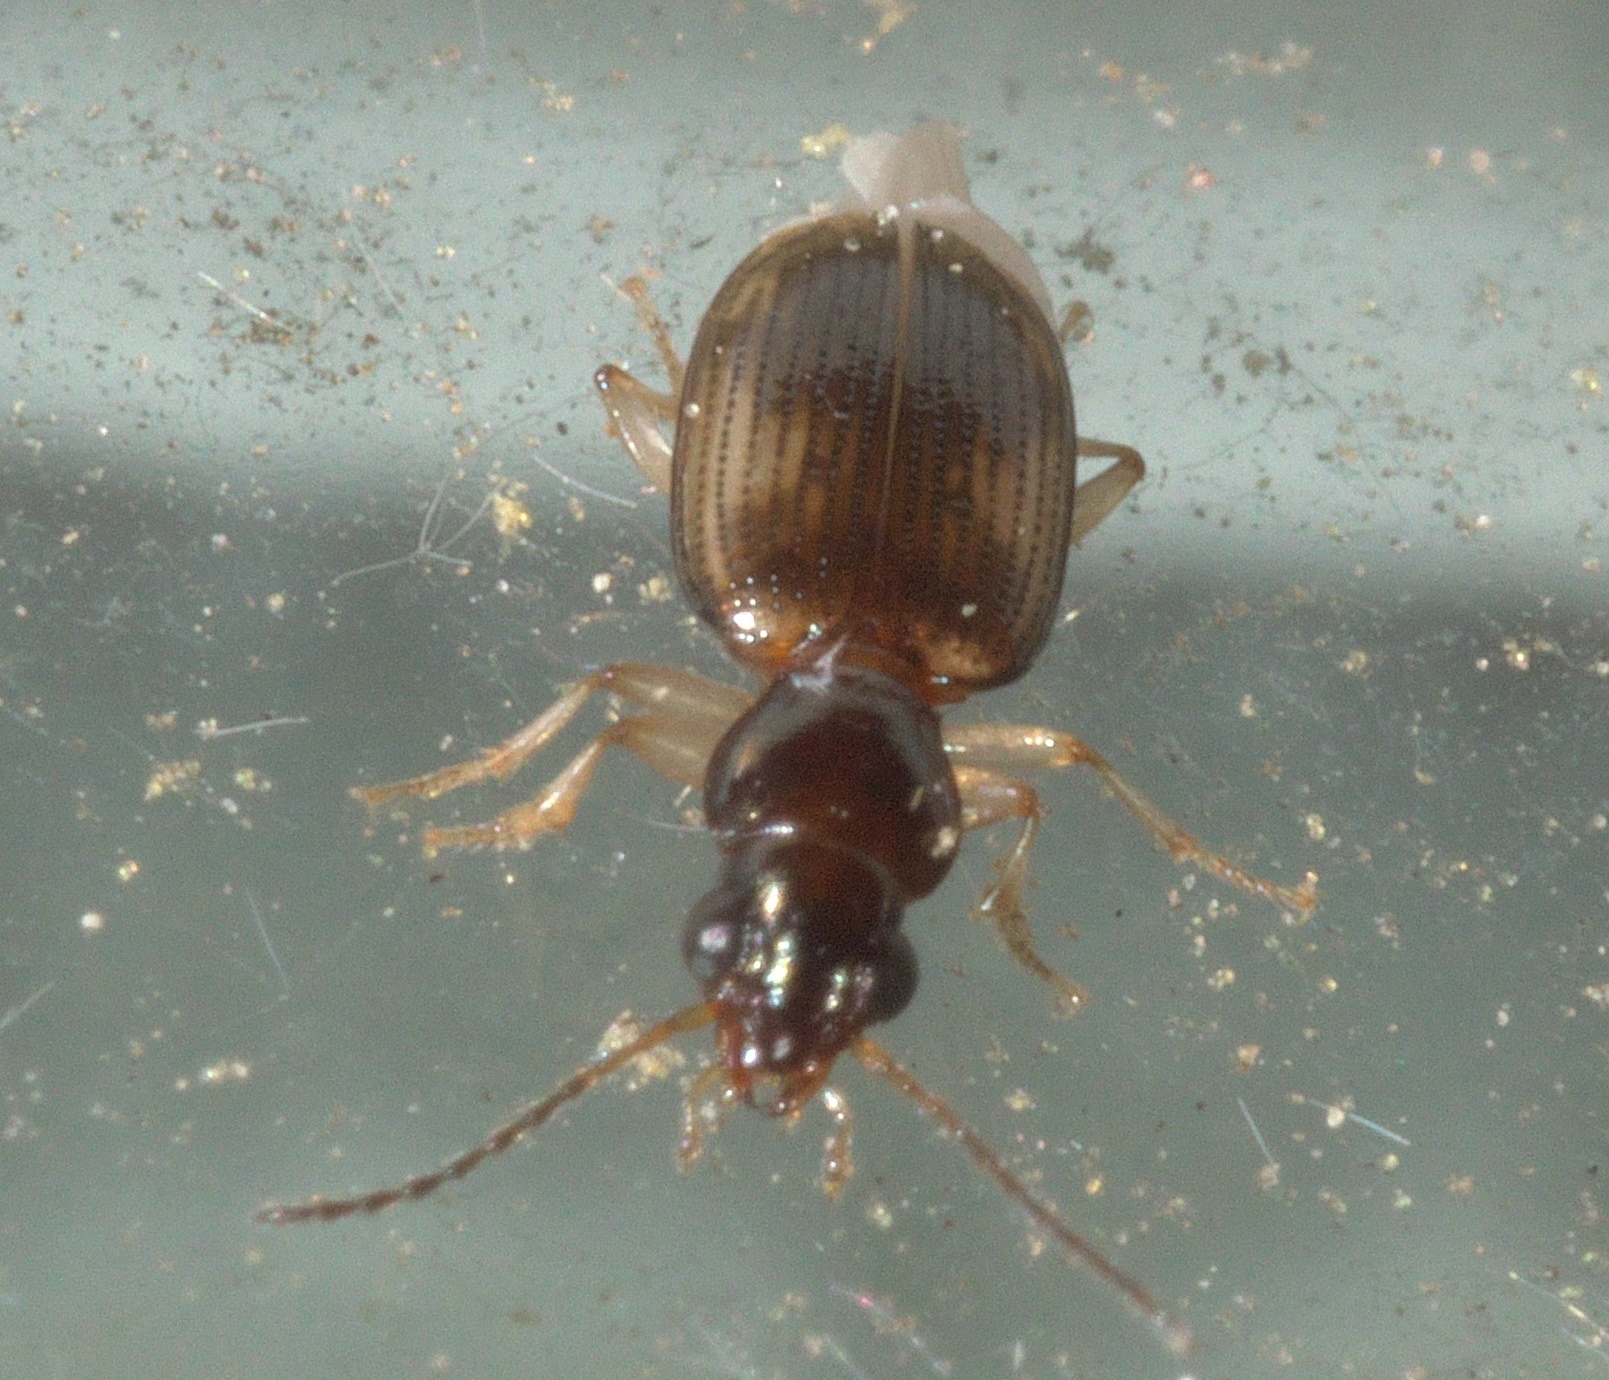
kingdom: Animalia
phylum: Arthropoda
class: Insecta
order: Coleoptera
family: Carabidae
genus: Bembidion
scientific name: Bembidion affine
